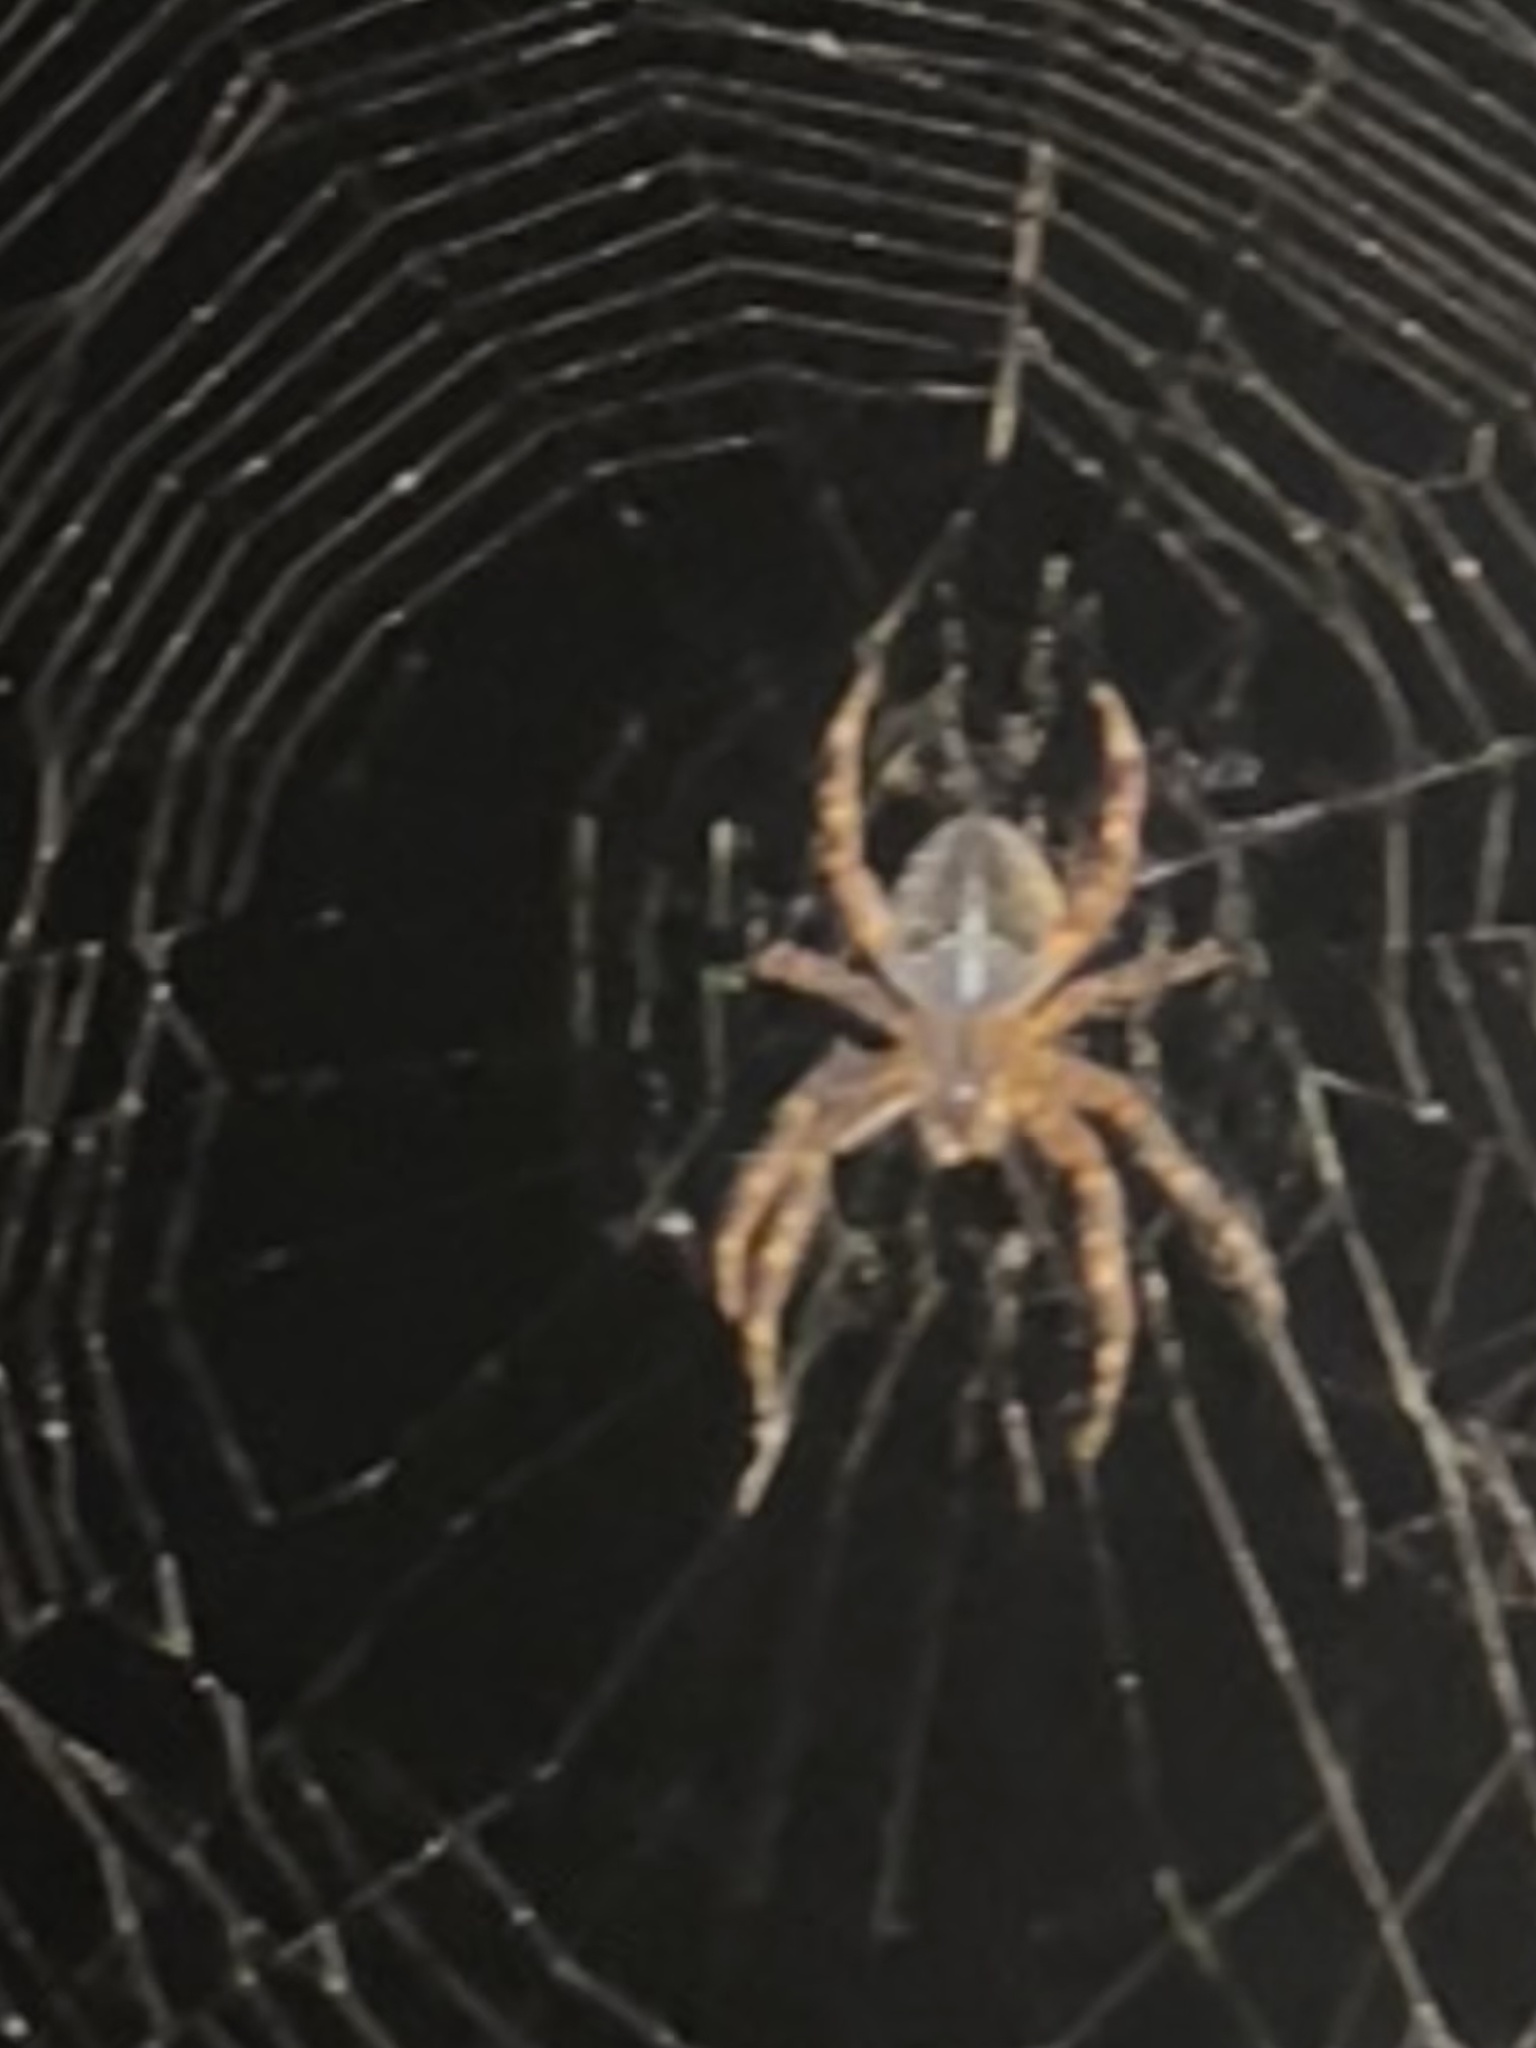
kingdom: Animalia
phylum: Arthropoda
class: Arachnida
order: Araneae
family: Araneidae
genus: Araneus
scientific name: Araneus diadematus
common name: Cross orbweaver
